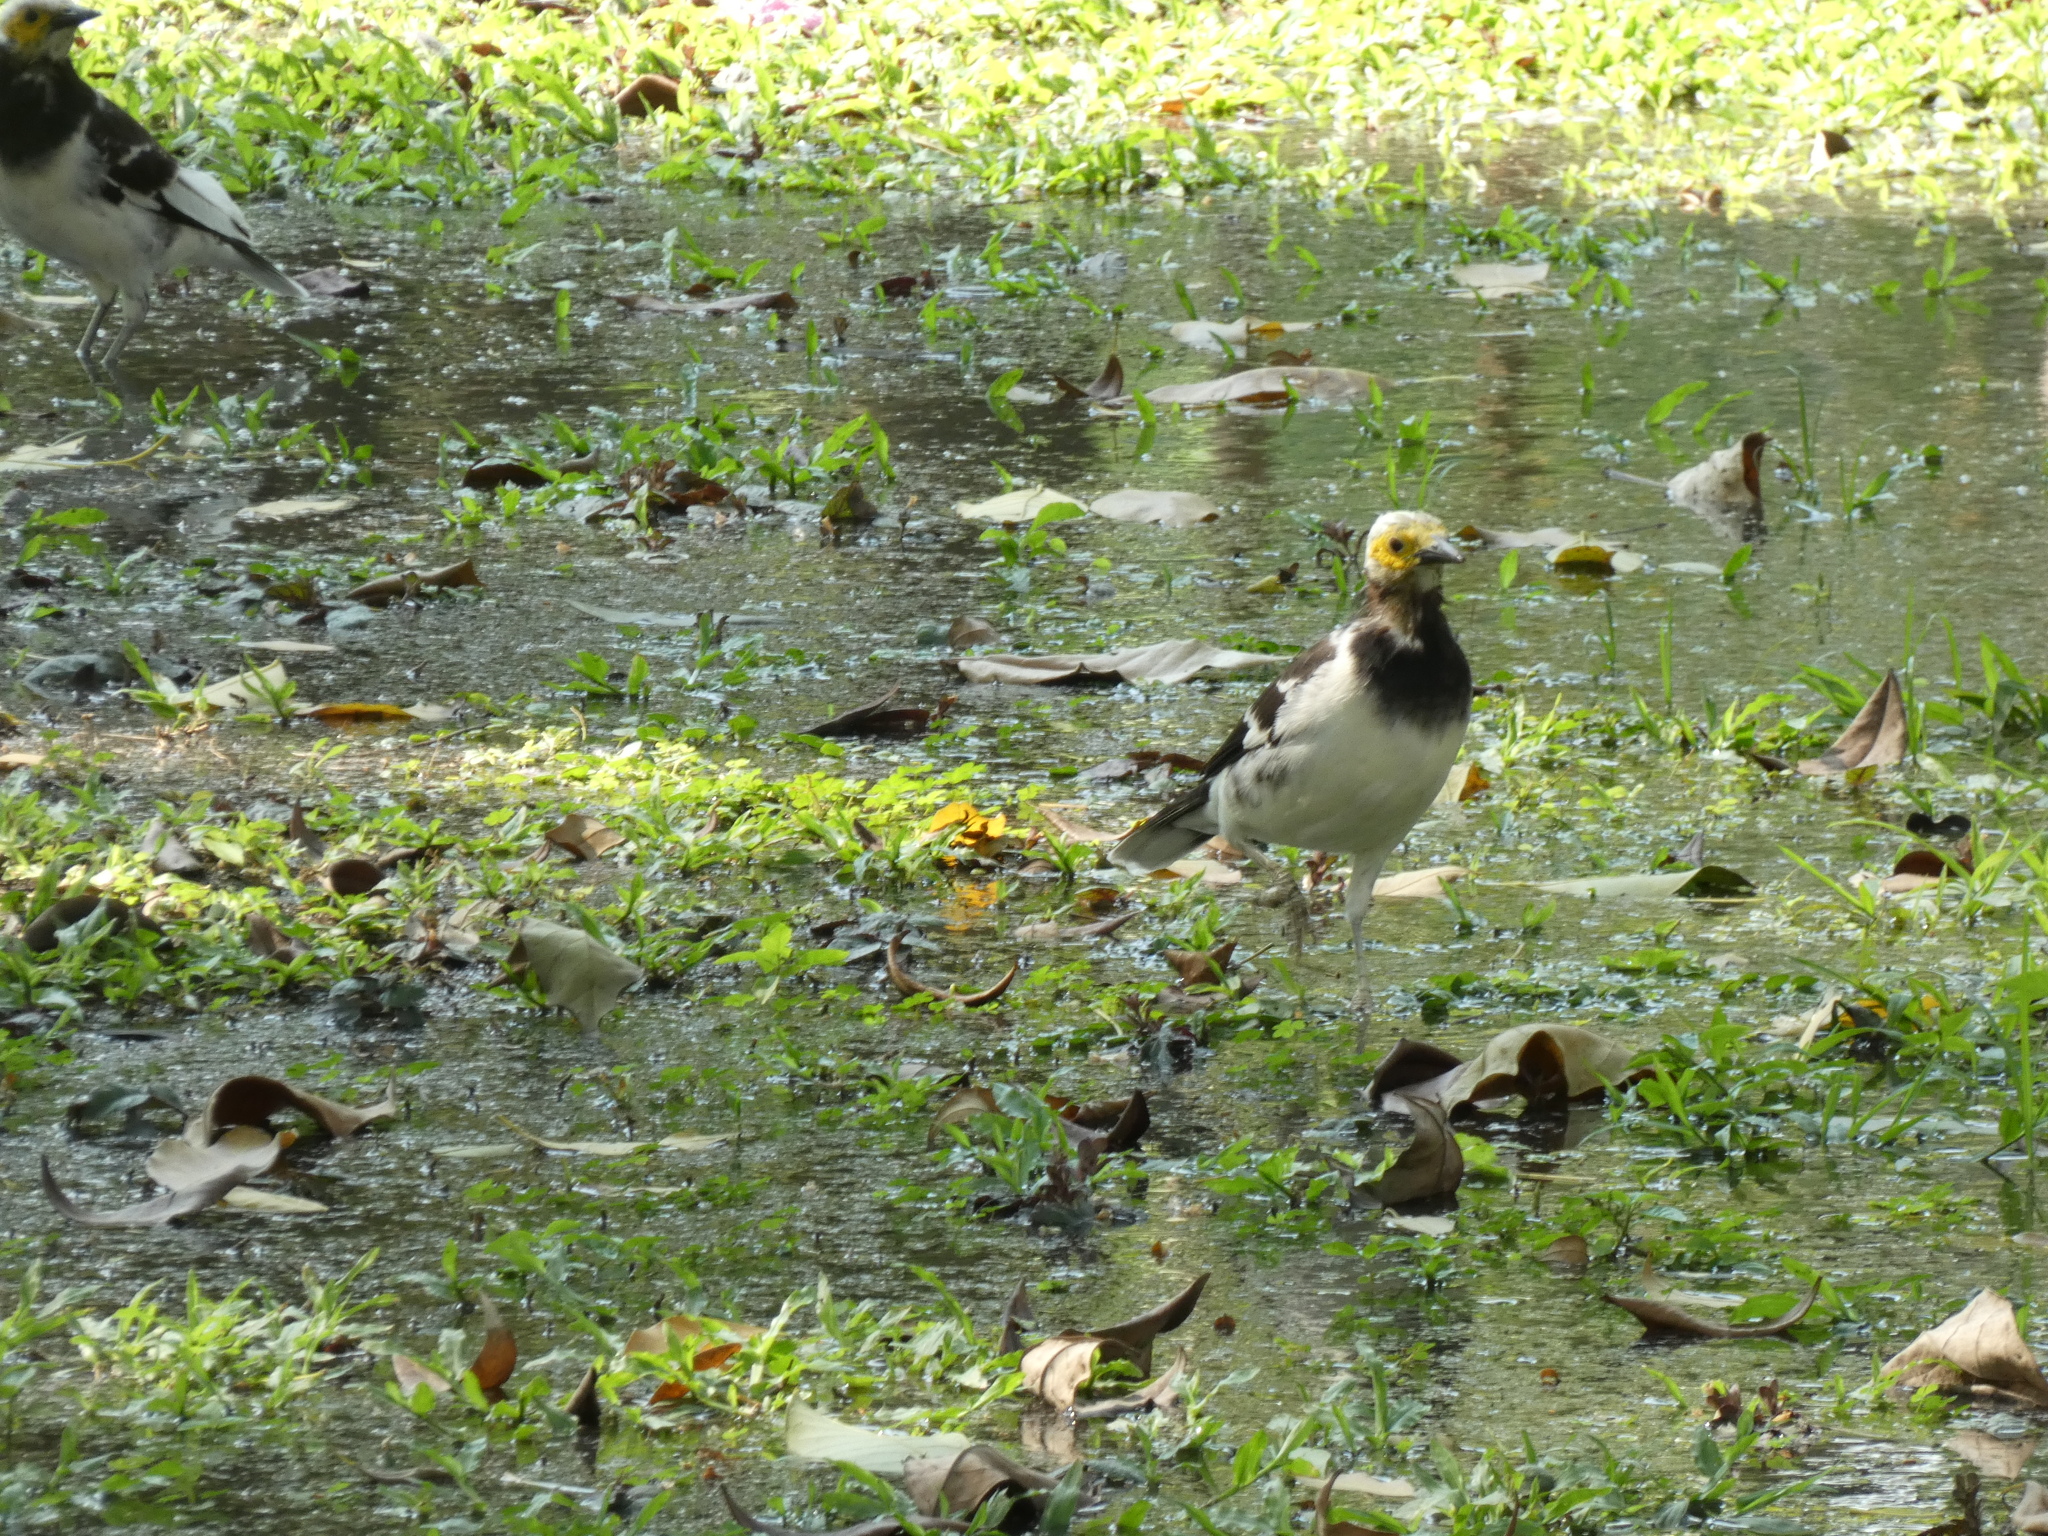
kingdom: Animalia
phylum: Chordata
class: Aves
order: Passeriformes
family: Sturnidae
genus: Gracupica
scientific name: Gracupica nigricollis
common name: Black-collared starling
